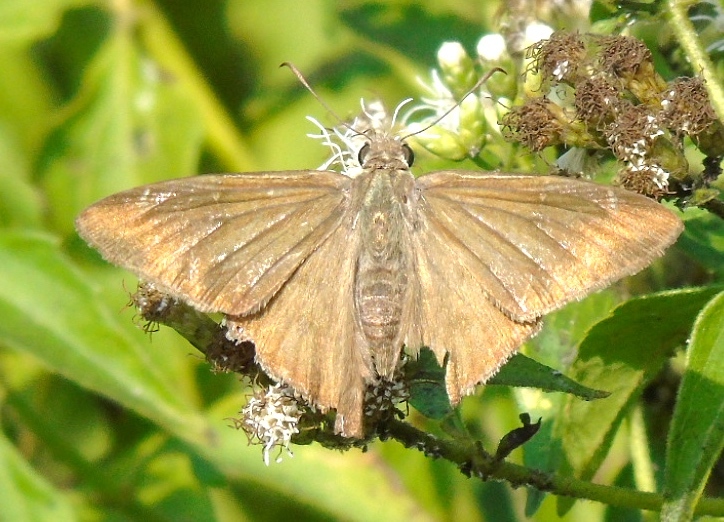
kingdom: Animalia
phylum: Arthropoda
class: Insecta
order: Lepidoptera
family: Hesperiidae
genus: Urbanus
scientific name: Urbanus simplicius
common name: Plain longtail
